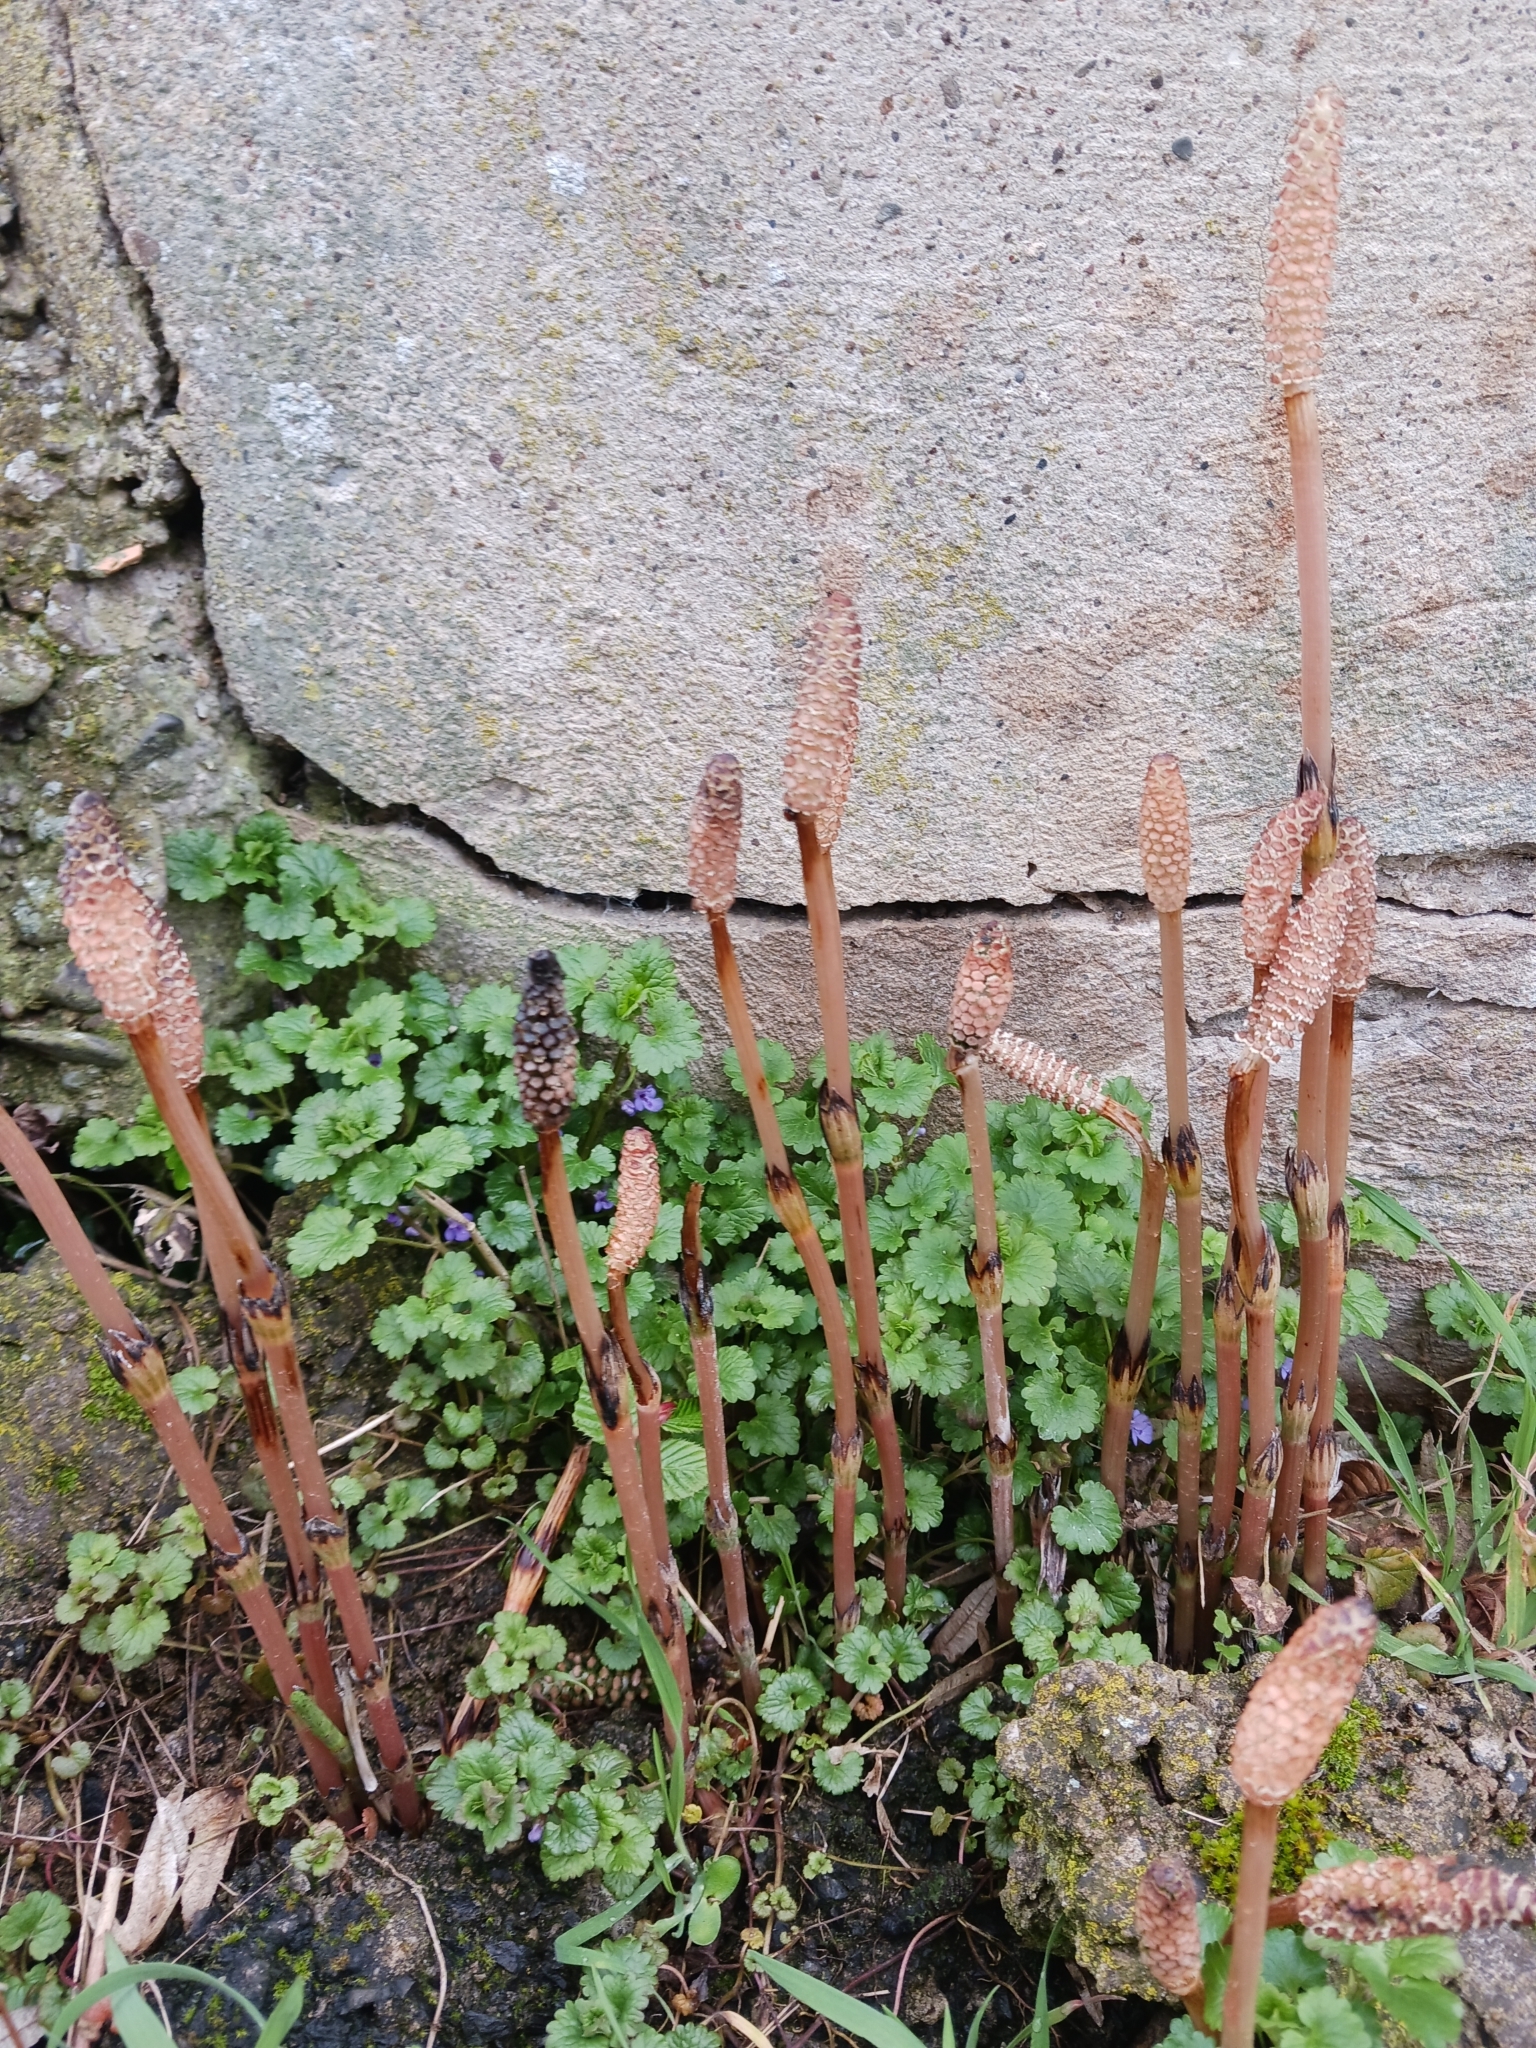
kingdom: Plantae
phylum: Tracheophyta
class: Polypodiopsida
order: Equisetales
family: Equisetaceae
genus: Equisetum
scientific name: Equisetum arvense
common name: Field horsetail
